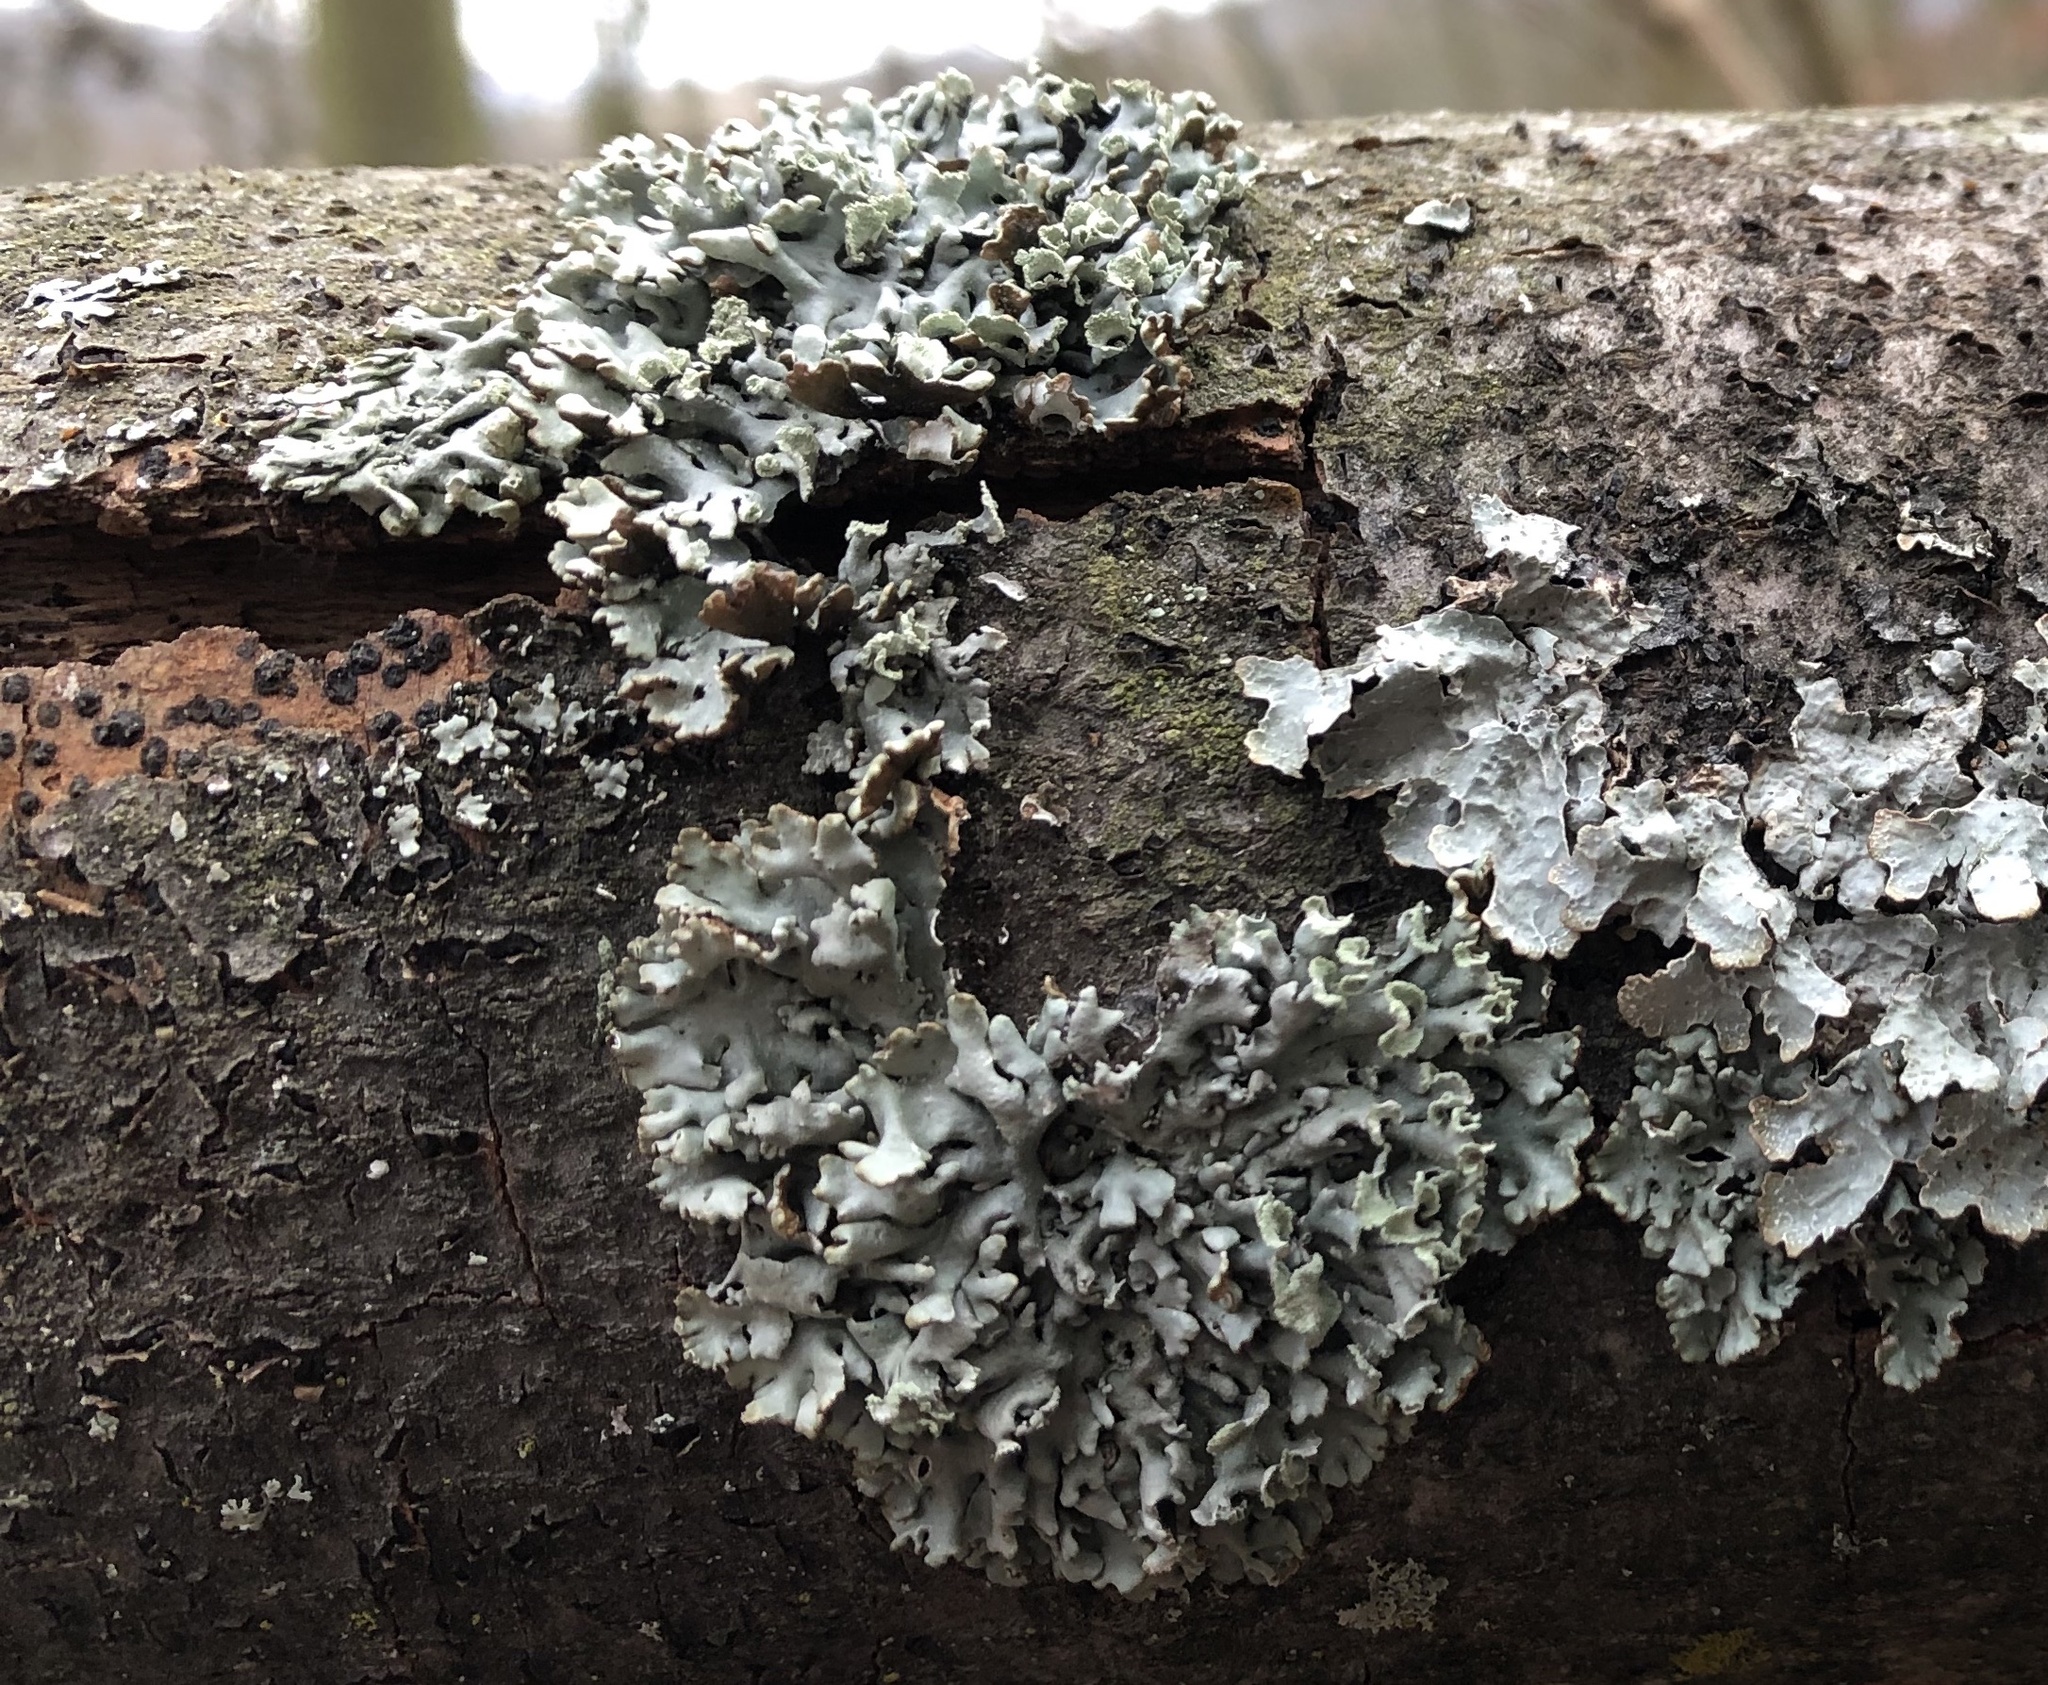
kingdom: Fungi
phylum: Ascomycota
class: Lecanoromycetes
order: Lecanorales
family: Parmeliaceae
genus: Hypogymnia
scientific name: Hypogymnia physodes
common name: Dark crottle
